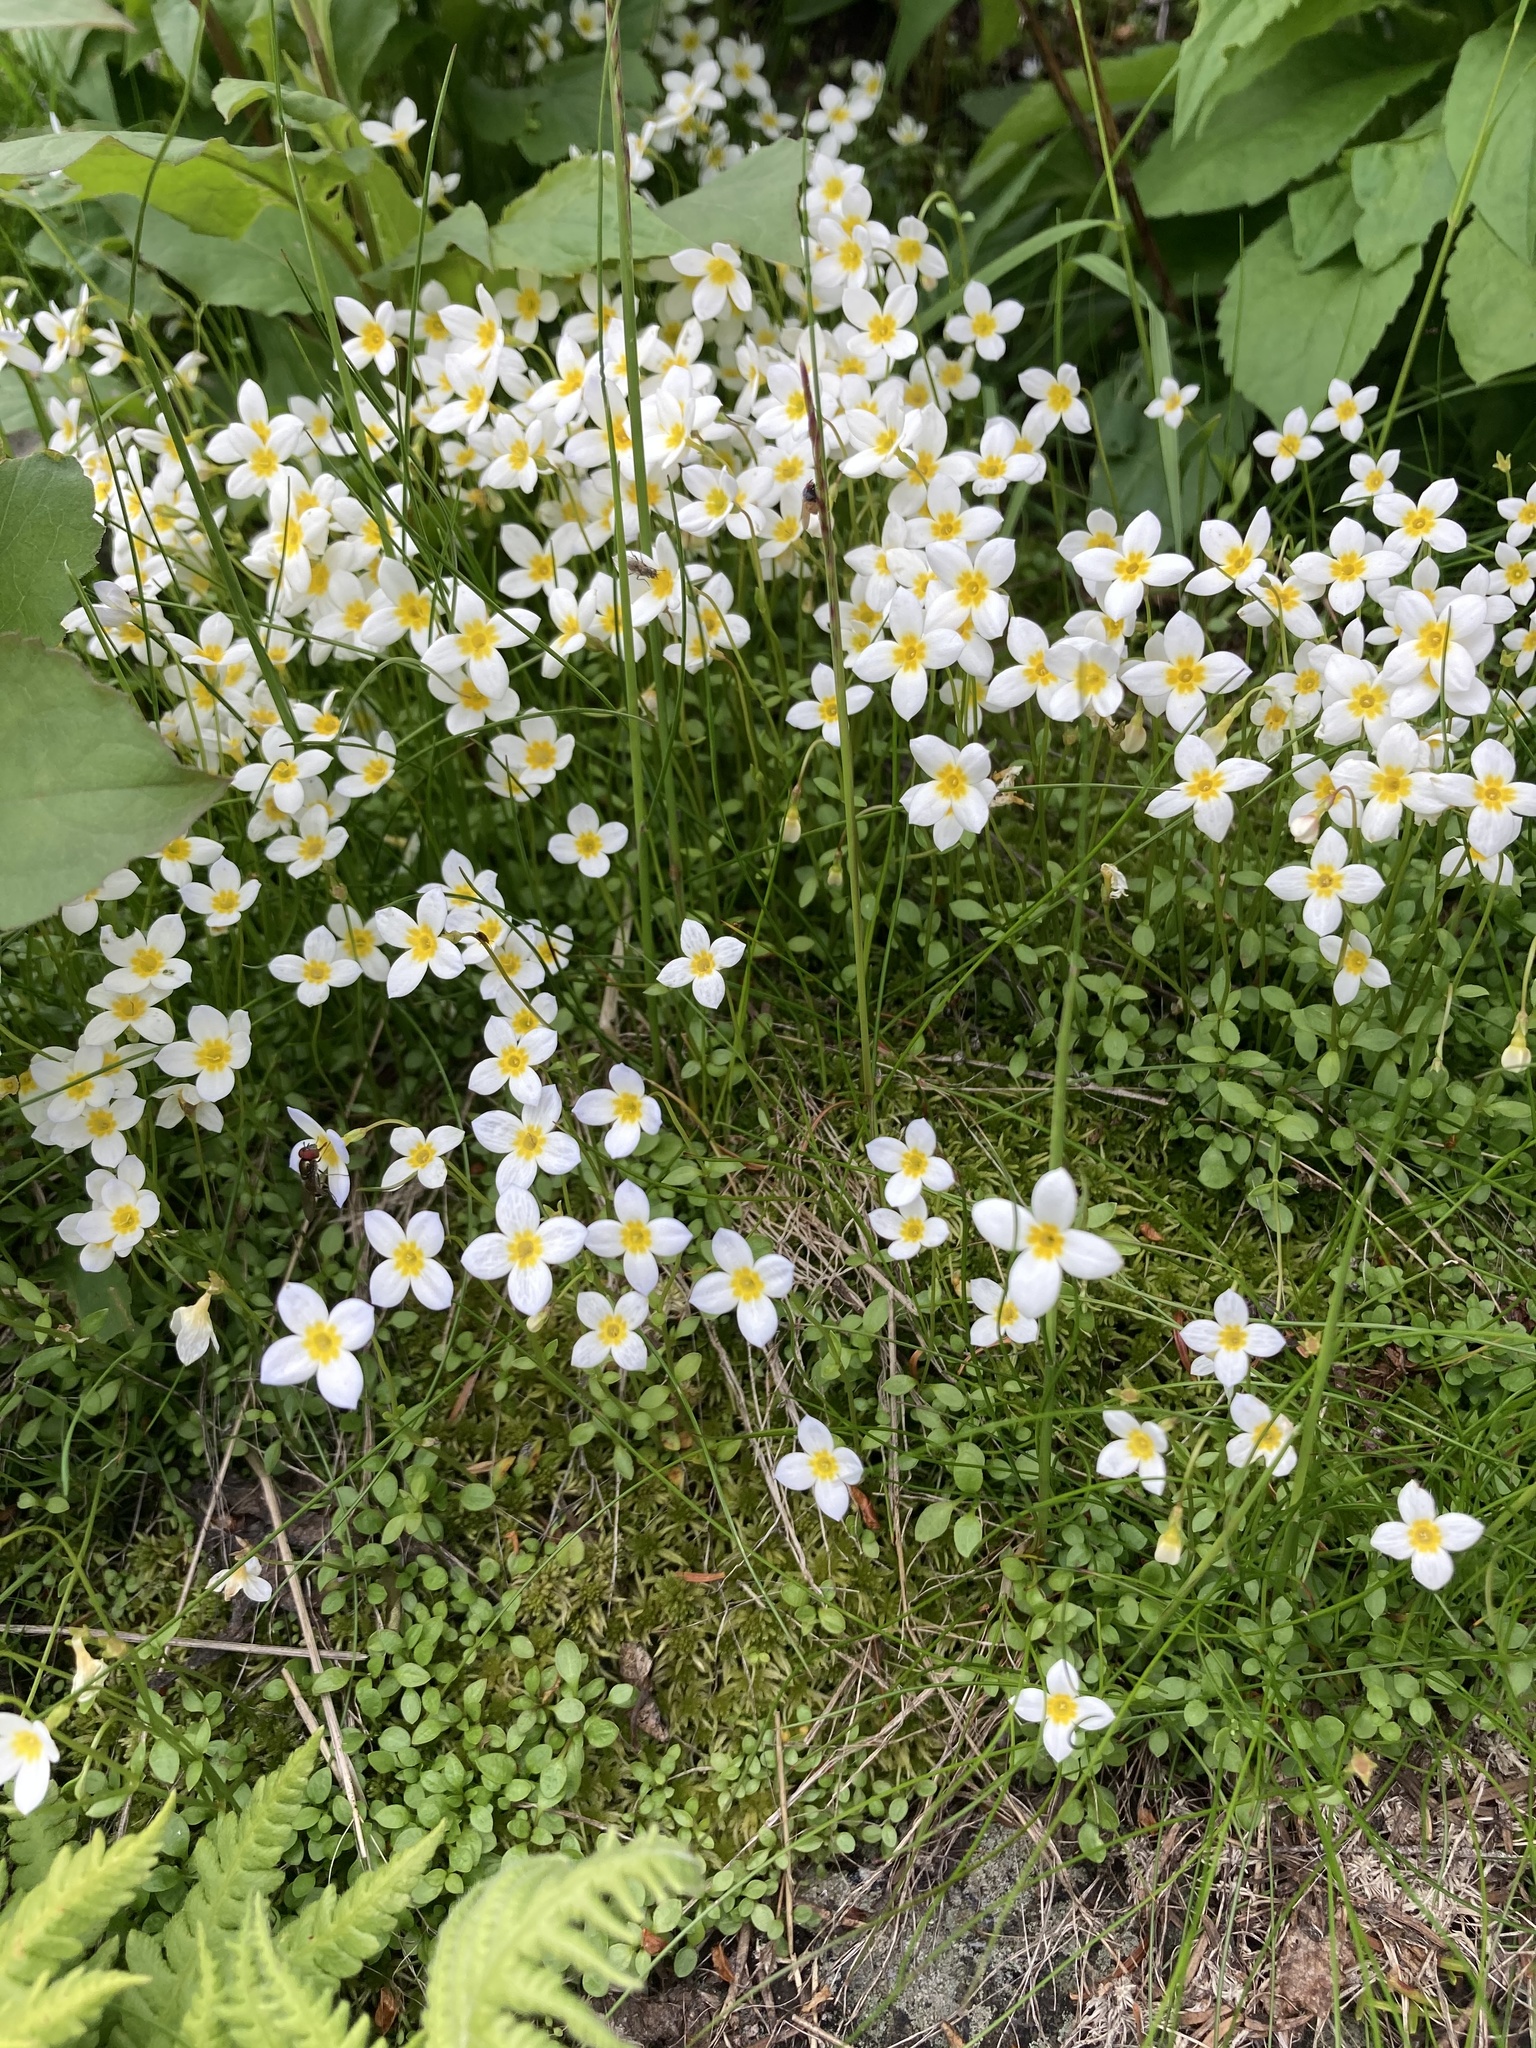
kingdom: Plantae
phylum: Tracheophyta
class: Magnoliopsida
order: Gentianales
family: Rubiaceae
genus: Houstonia
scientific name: Houstonia caerulea
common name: Bluets
